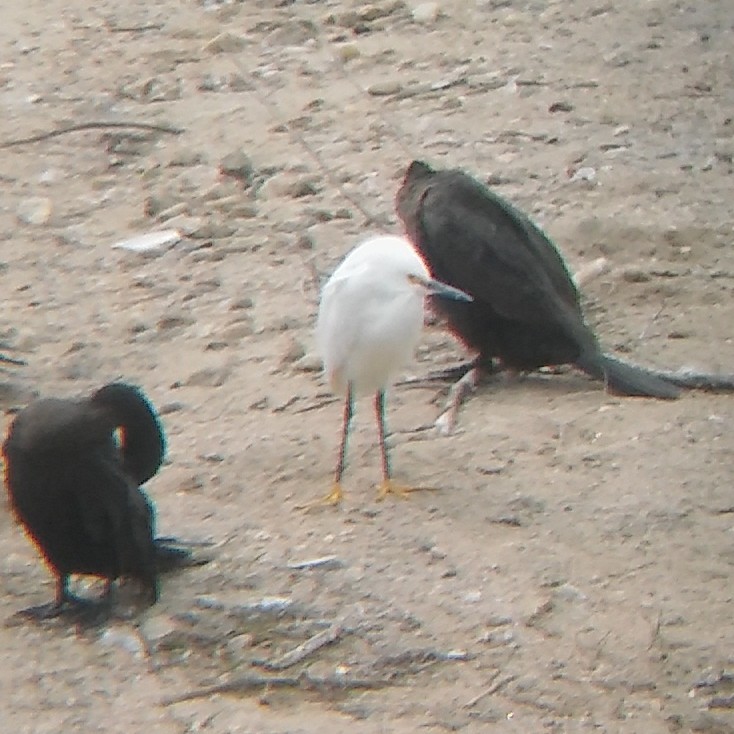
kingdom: Animalia
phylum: Chordata
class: Aves
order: Pelecaniformes
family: Ardeidae
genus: Egretta
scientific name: Egretta thula
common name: Snowy egret
